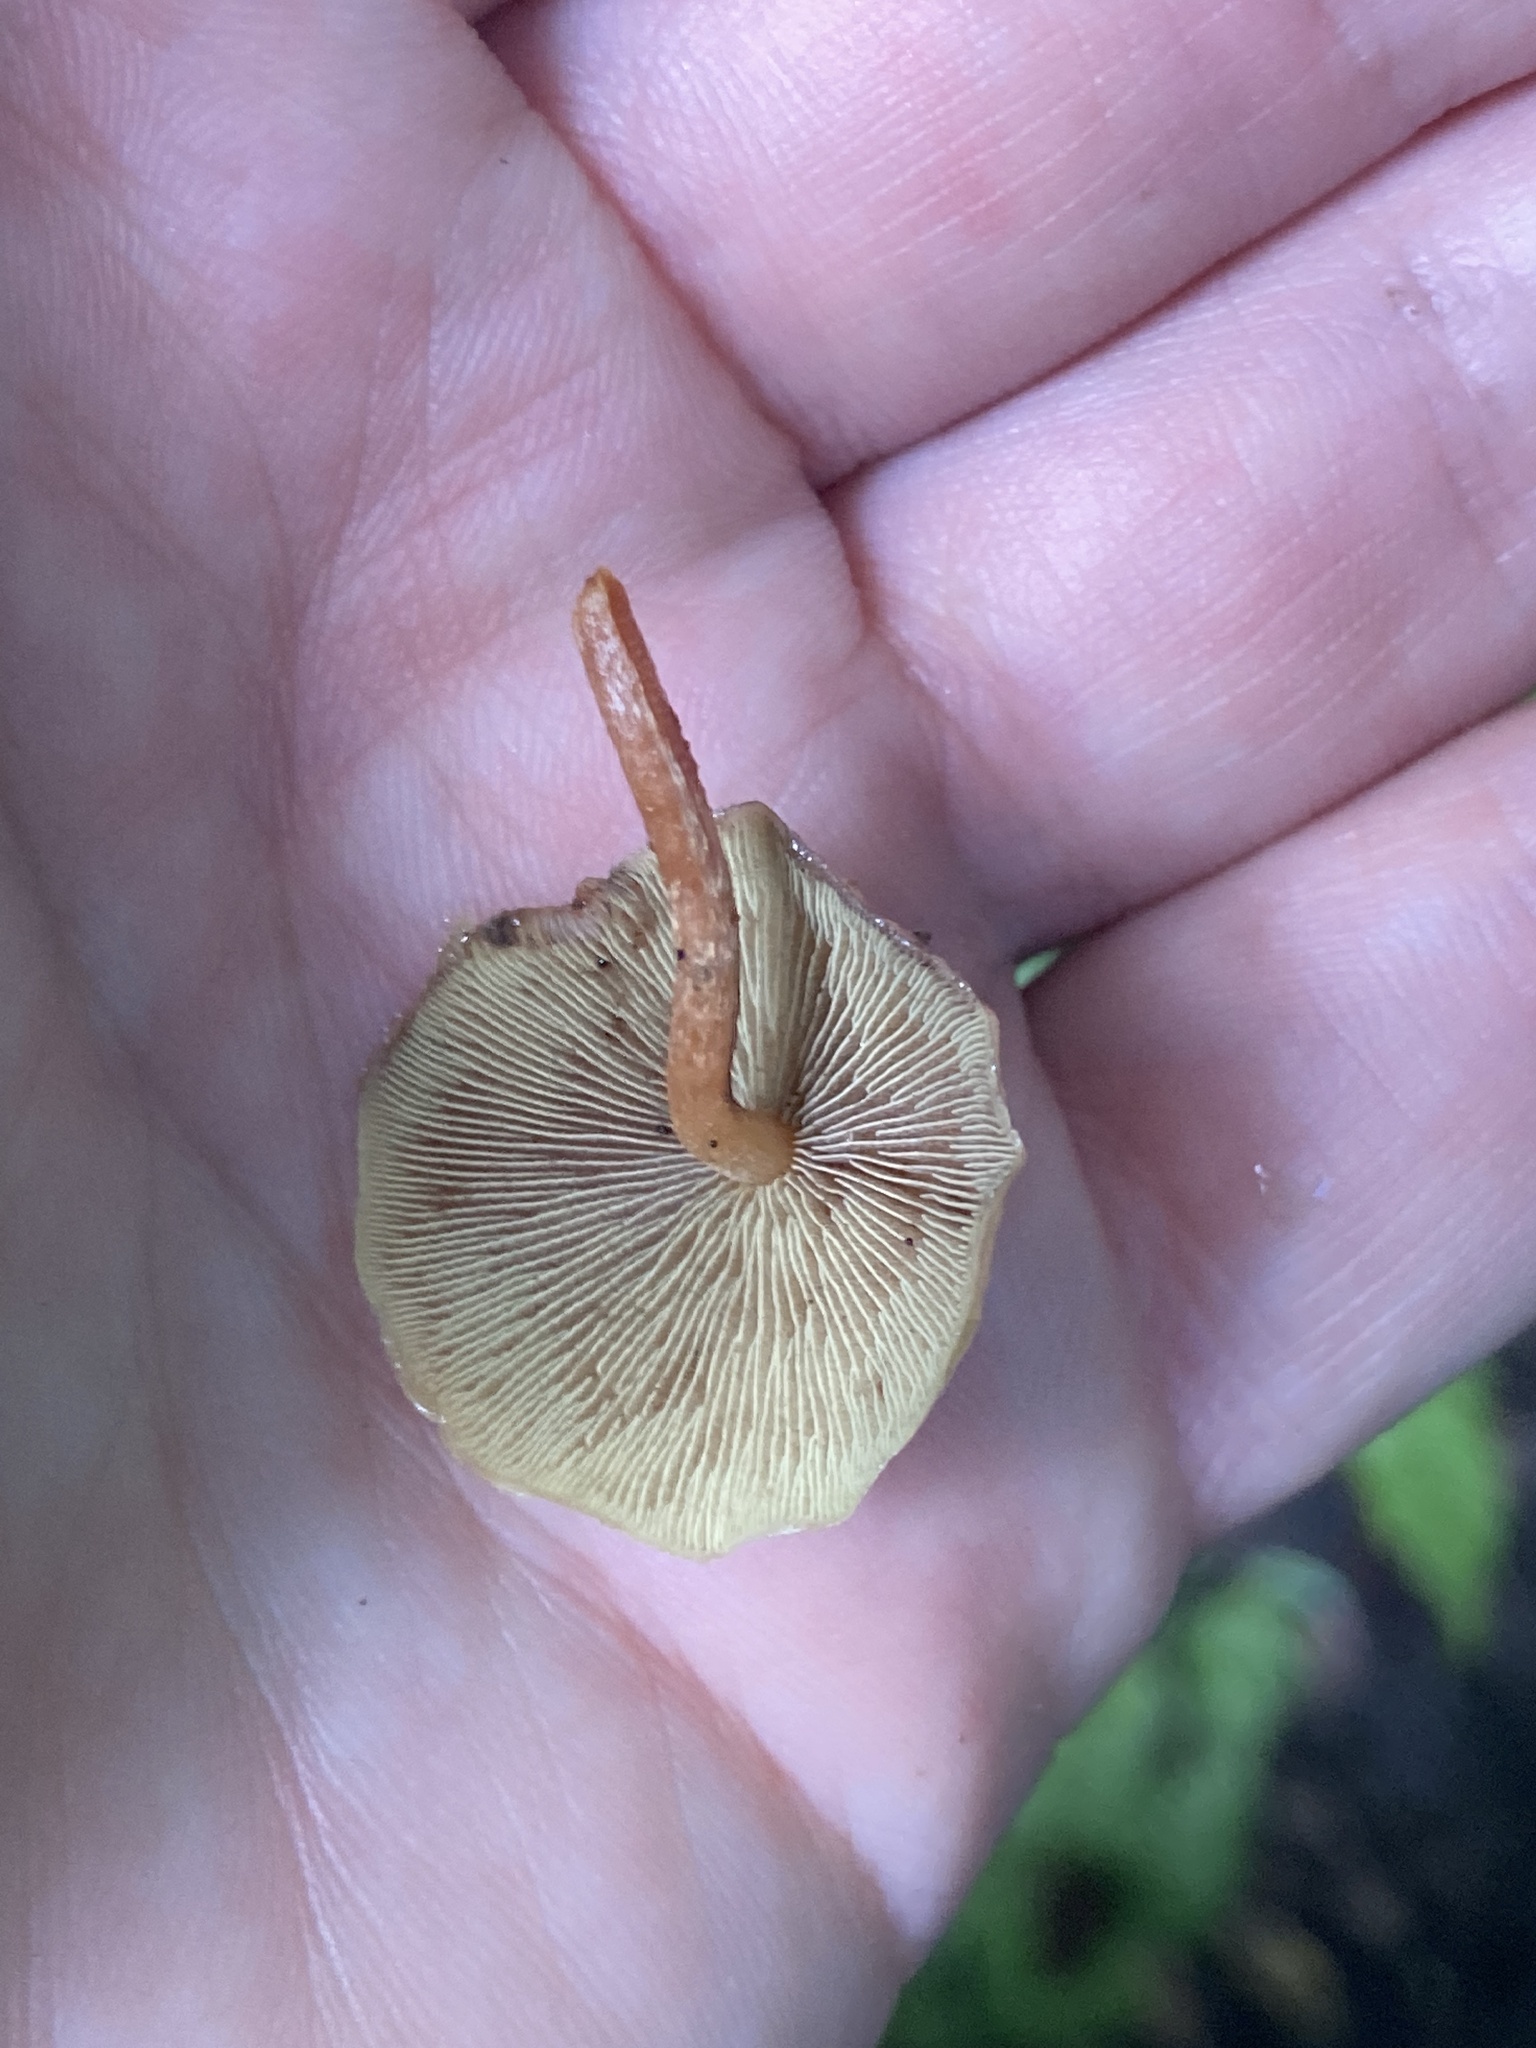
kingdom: Fungi
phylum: Basidiomycota
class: Agaricomycetes
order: Agaricales
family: Strophariaceae
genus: Hypholoma
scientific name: Hypholoma acutum
